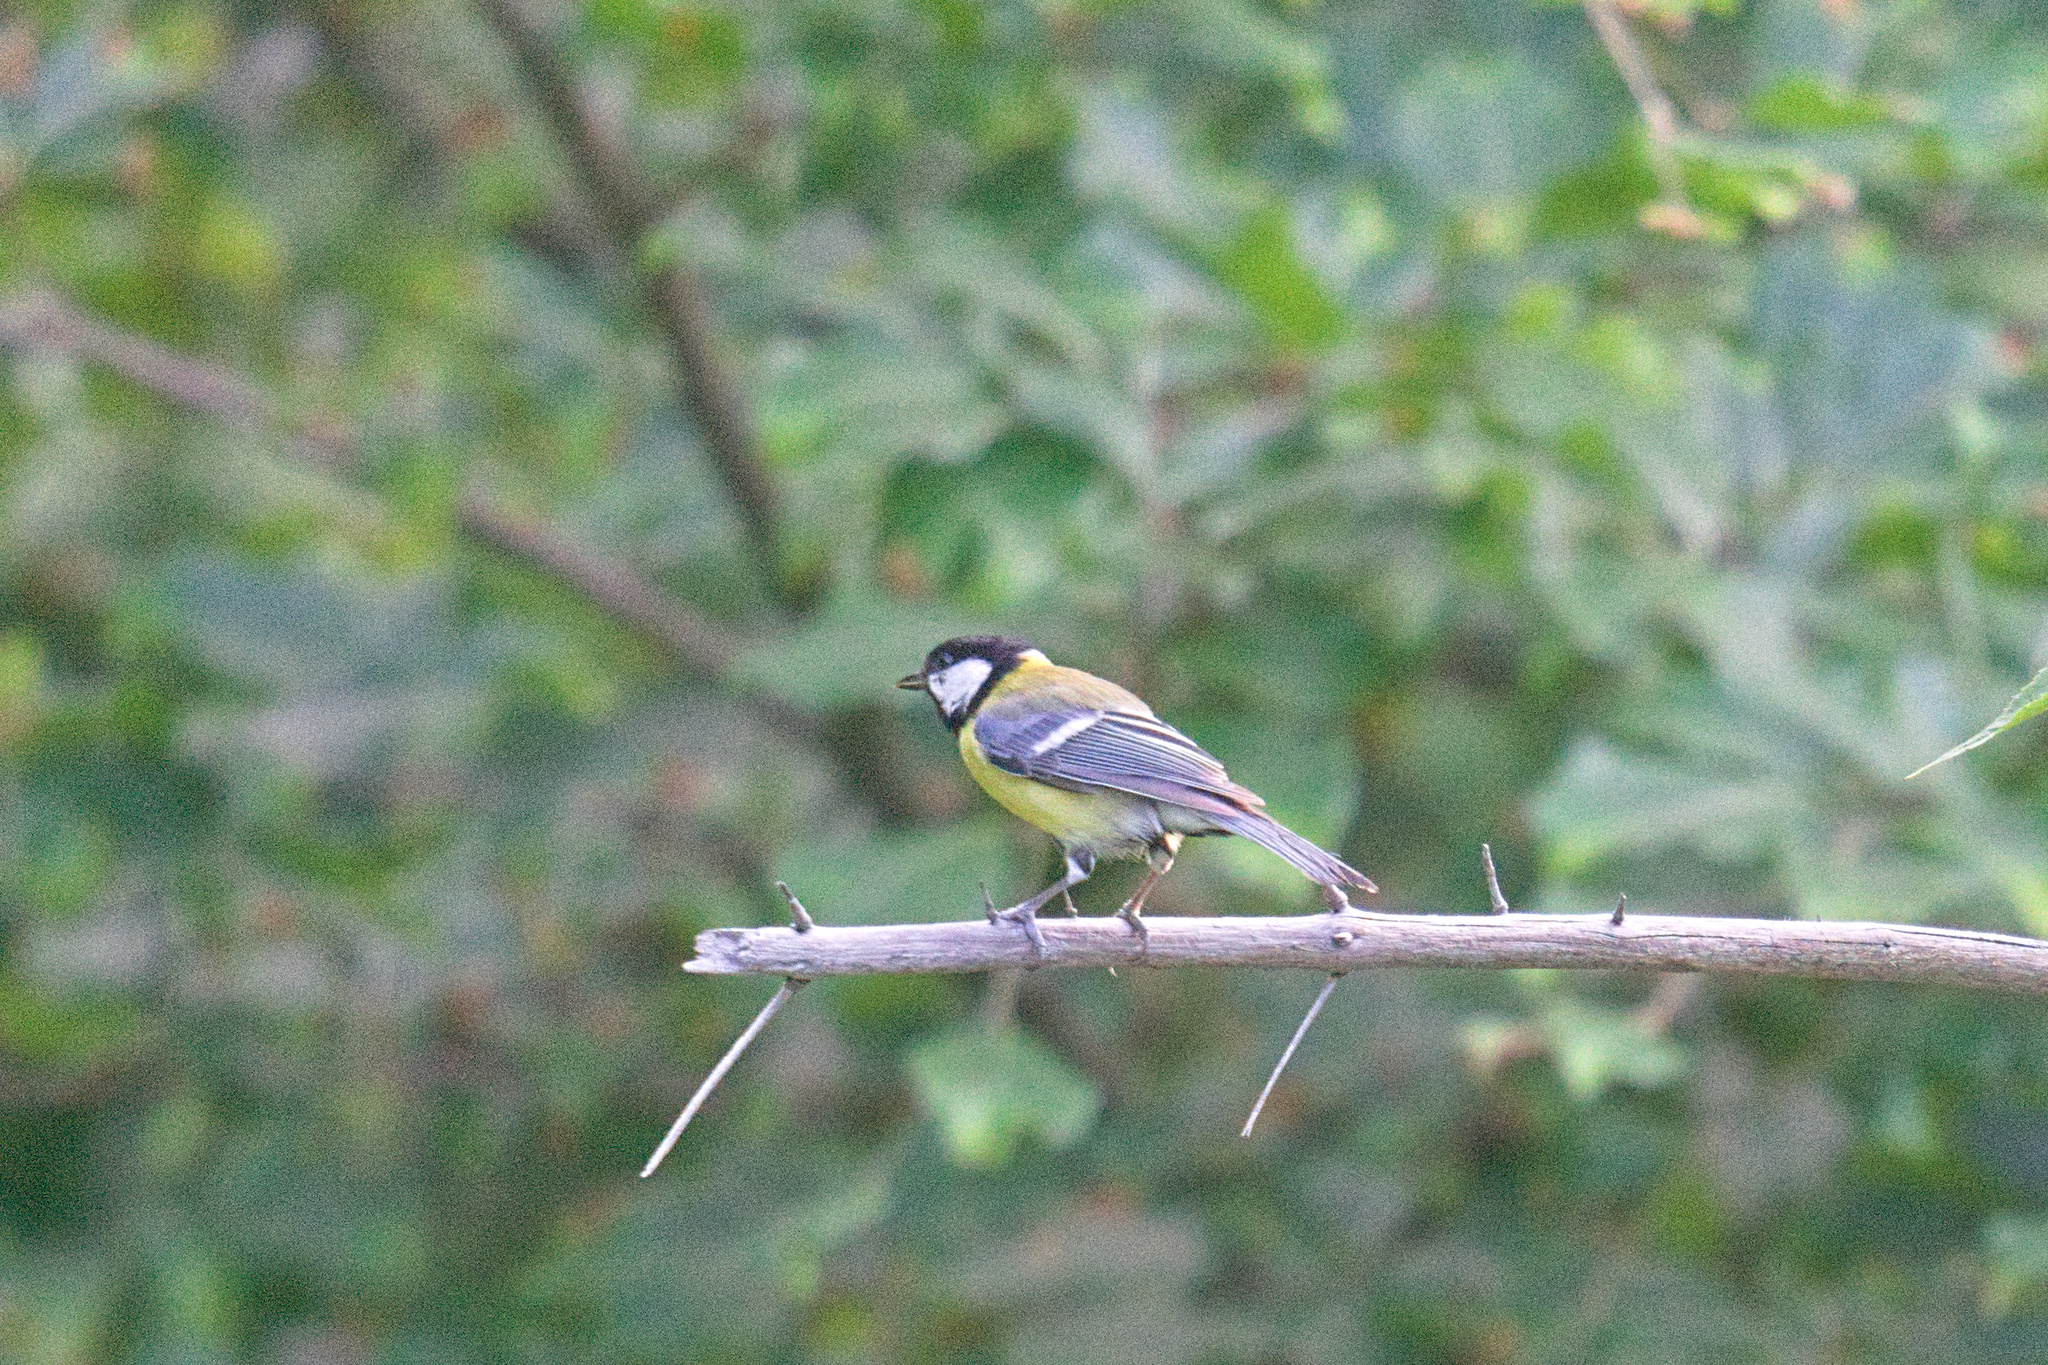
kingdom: Animalia
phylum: Chordata
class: Aves
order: Passeriformes
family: Paridae
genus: Parus
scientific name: Parus major
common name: Great tit
